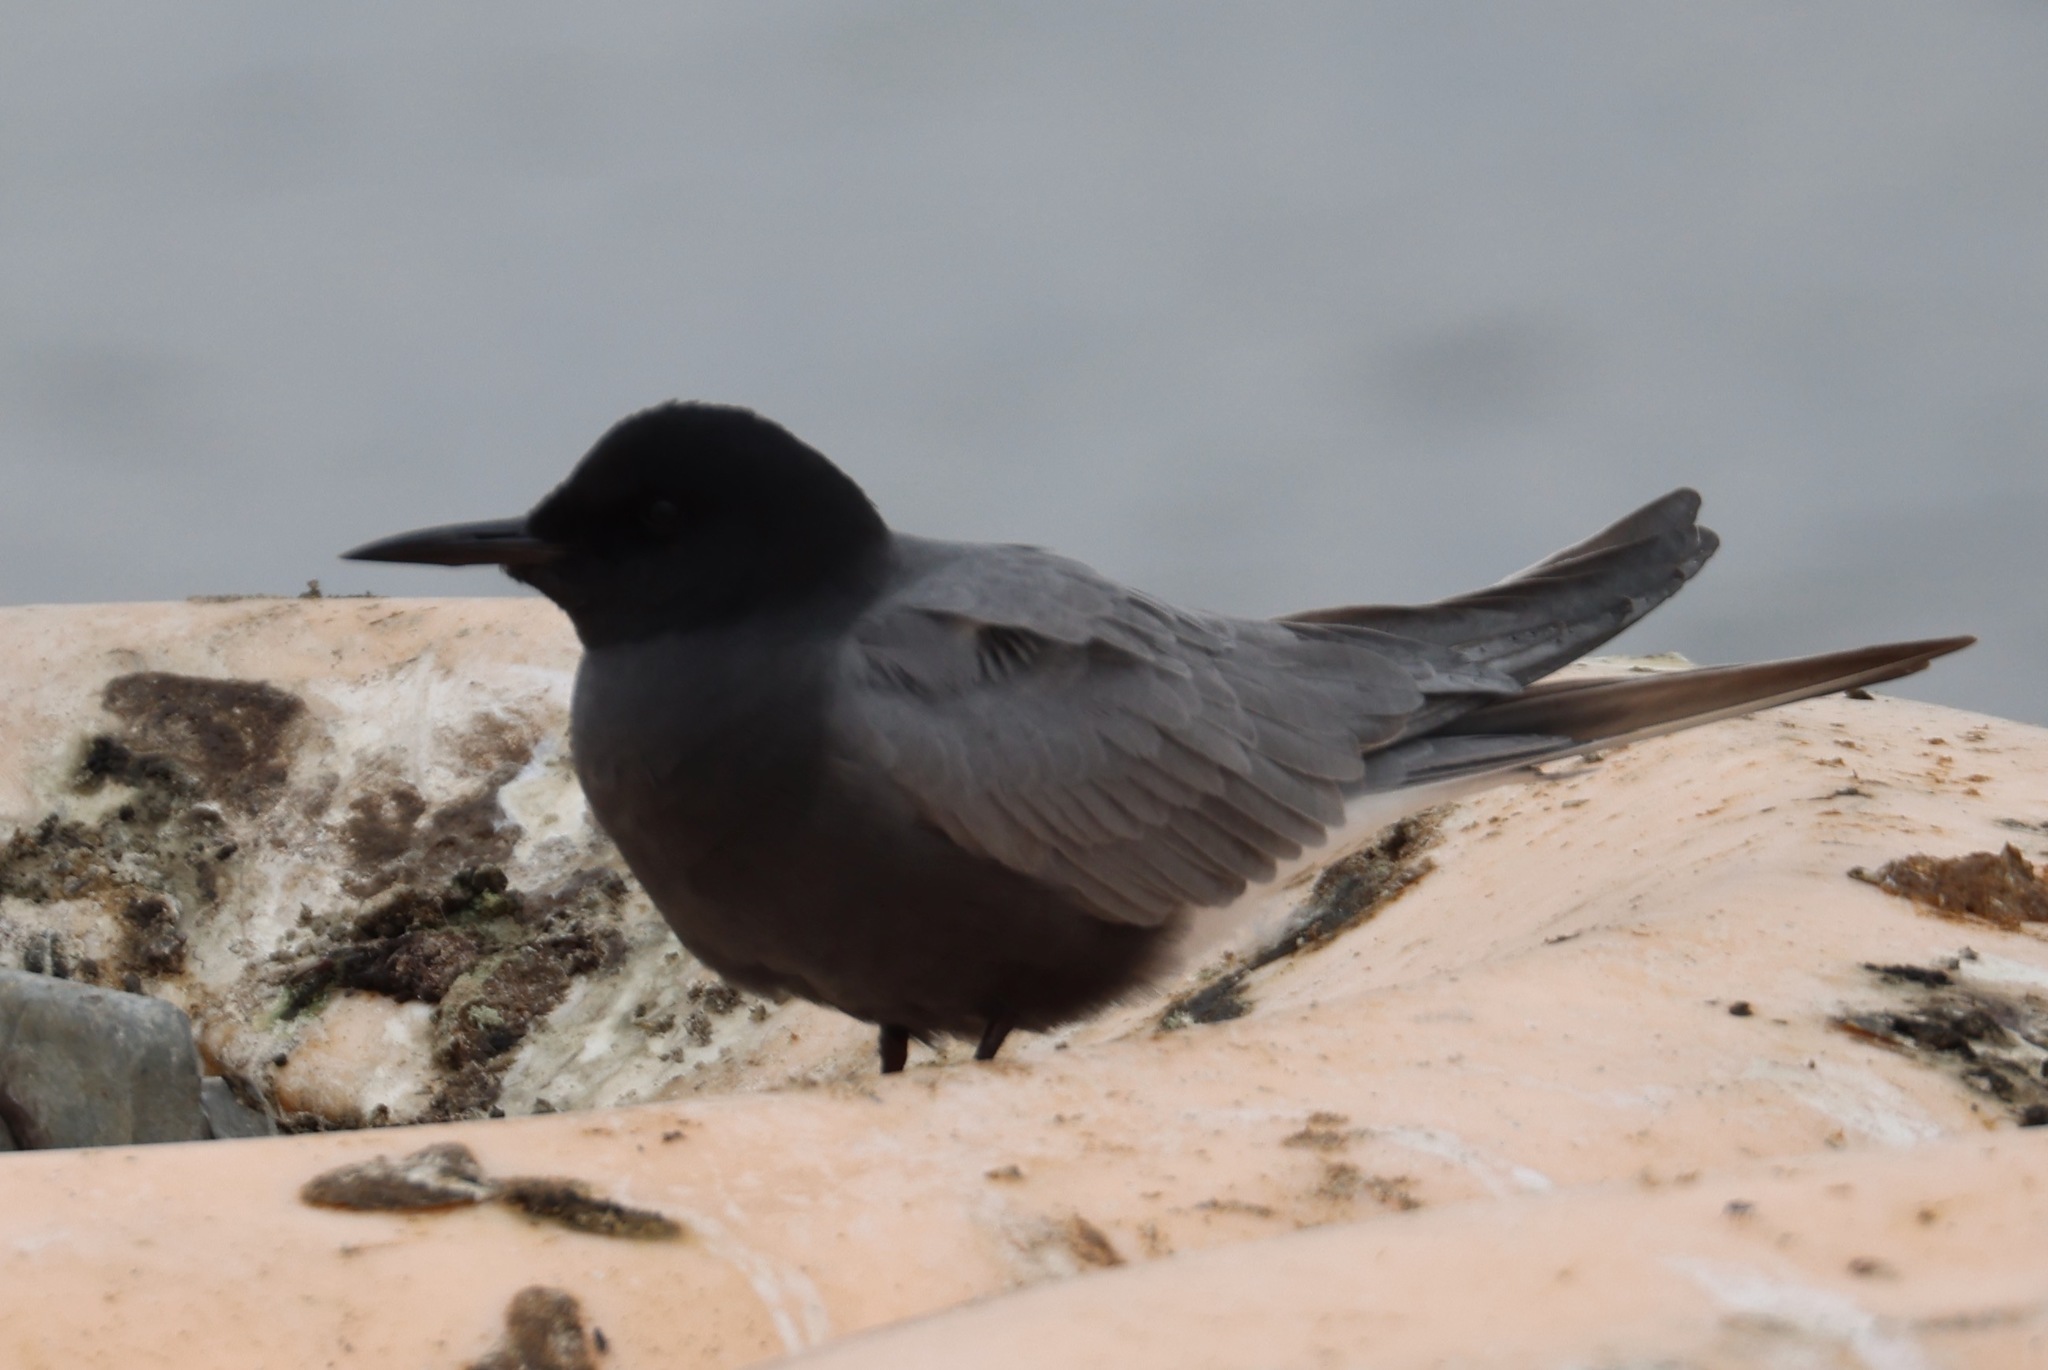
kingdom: Animalia
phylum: Chordata
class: Aves
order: Charadriiformes
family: Laridae
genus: Chlidonias
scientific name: Chlidonias niger
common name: Black tern
